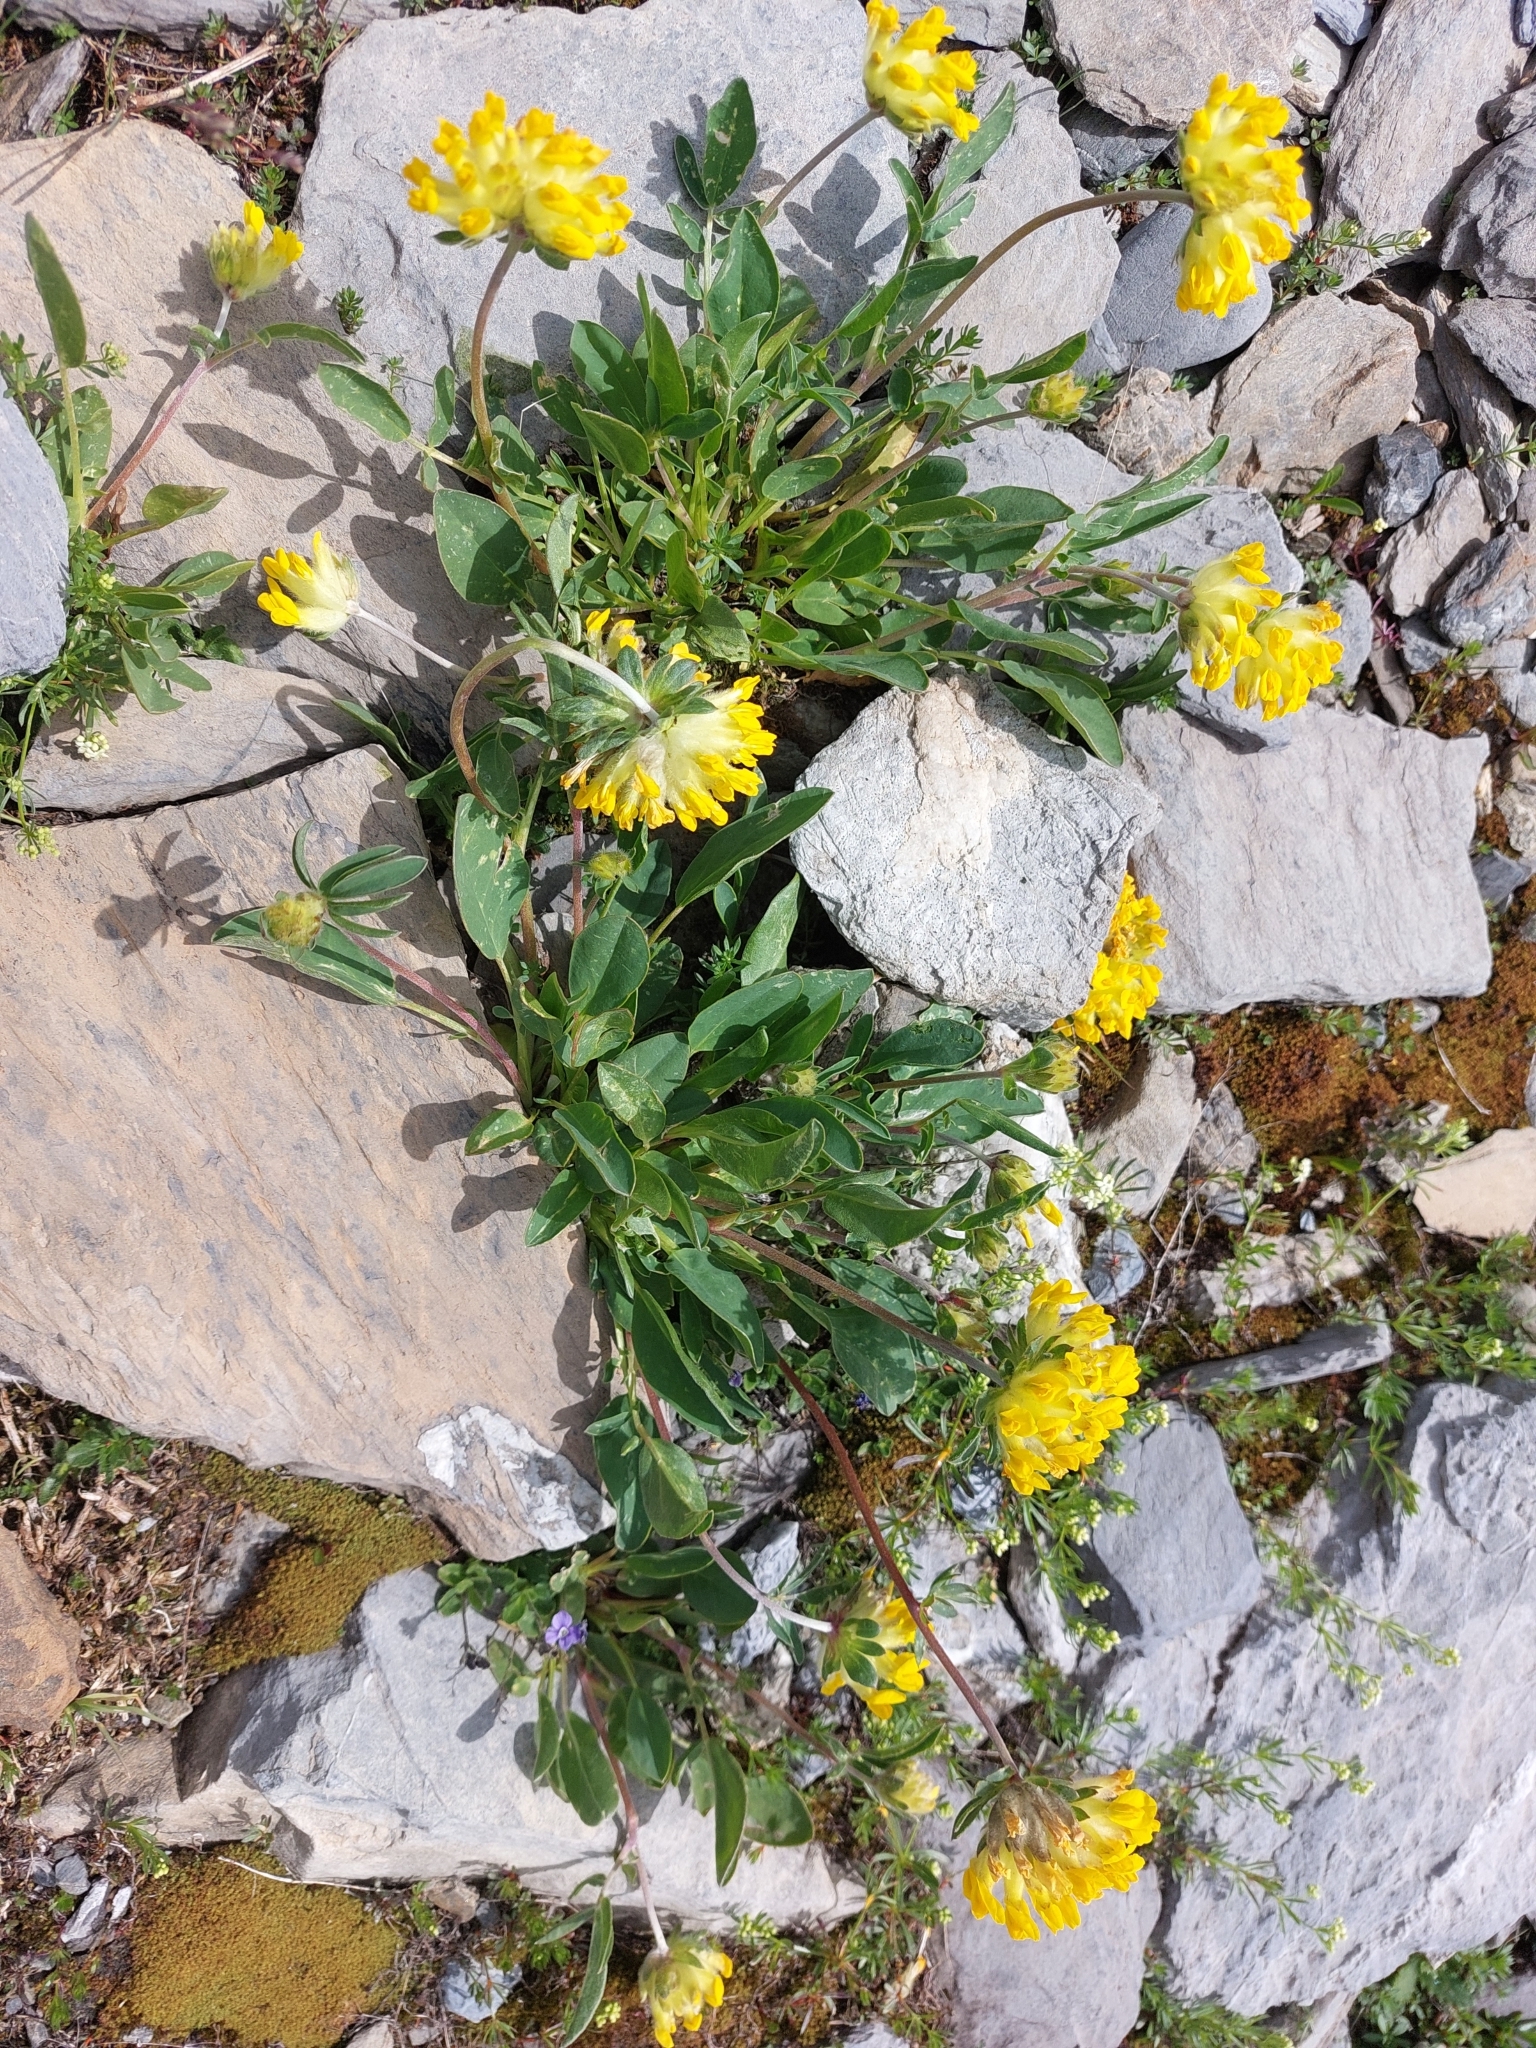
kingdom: Plantae
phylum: Tracheophyta
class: Magnoliopsida
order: Fabales
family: Fabaceae
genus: Anthyllis
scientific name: Anthyllis vulneraria
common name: Kidney vetch
